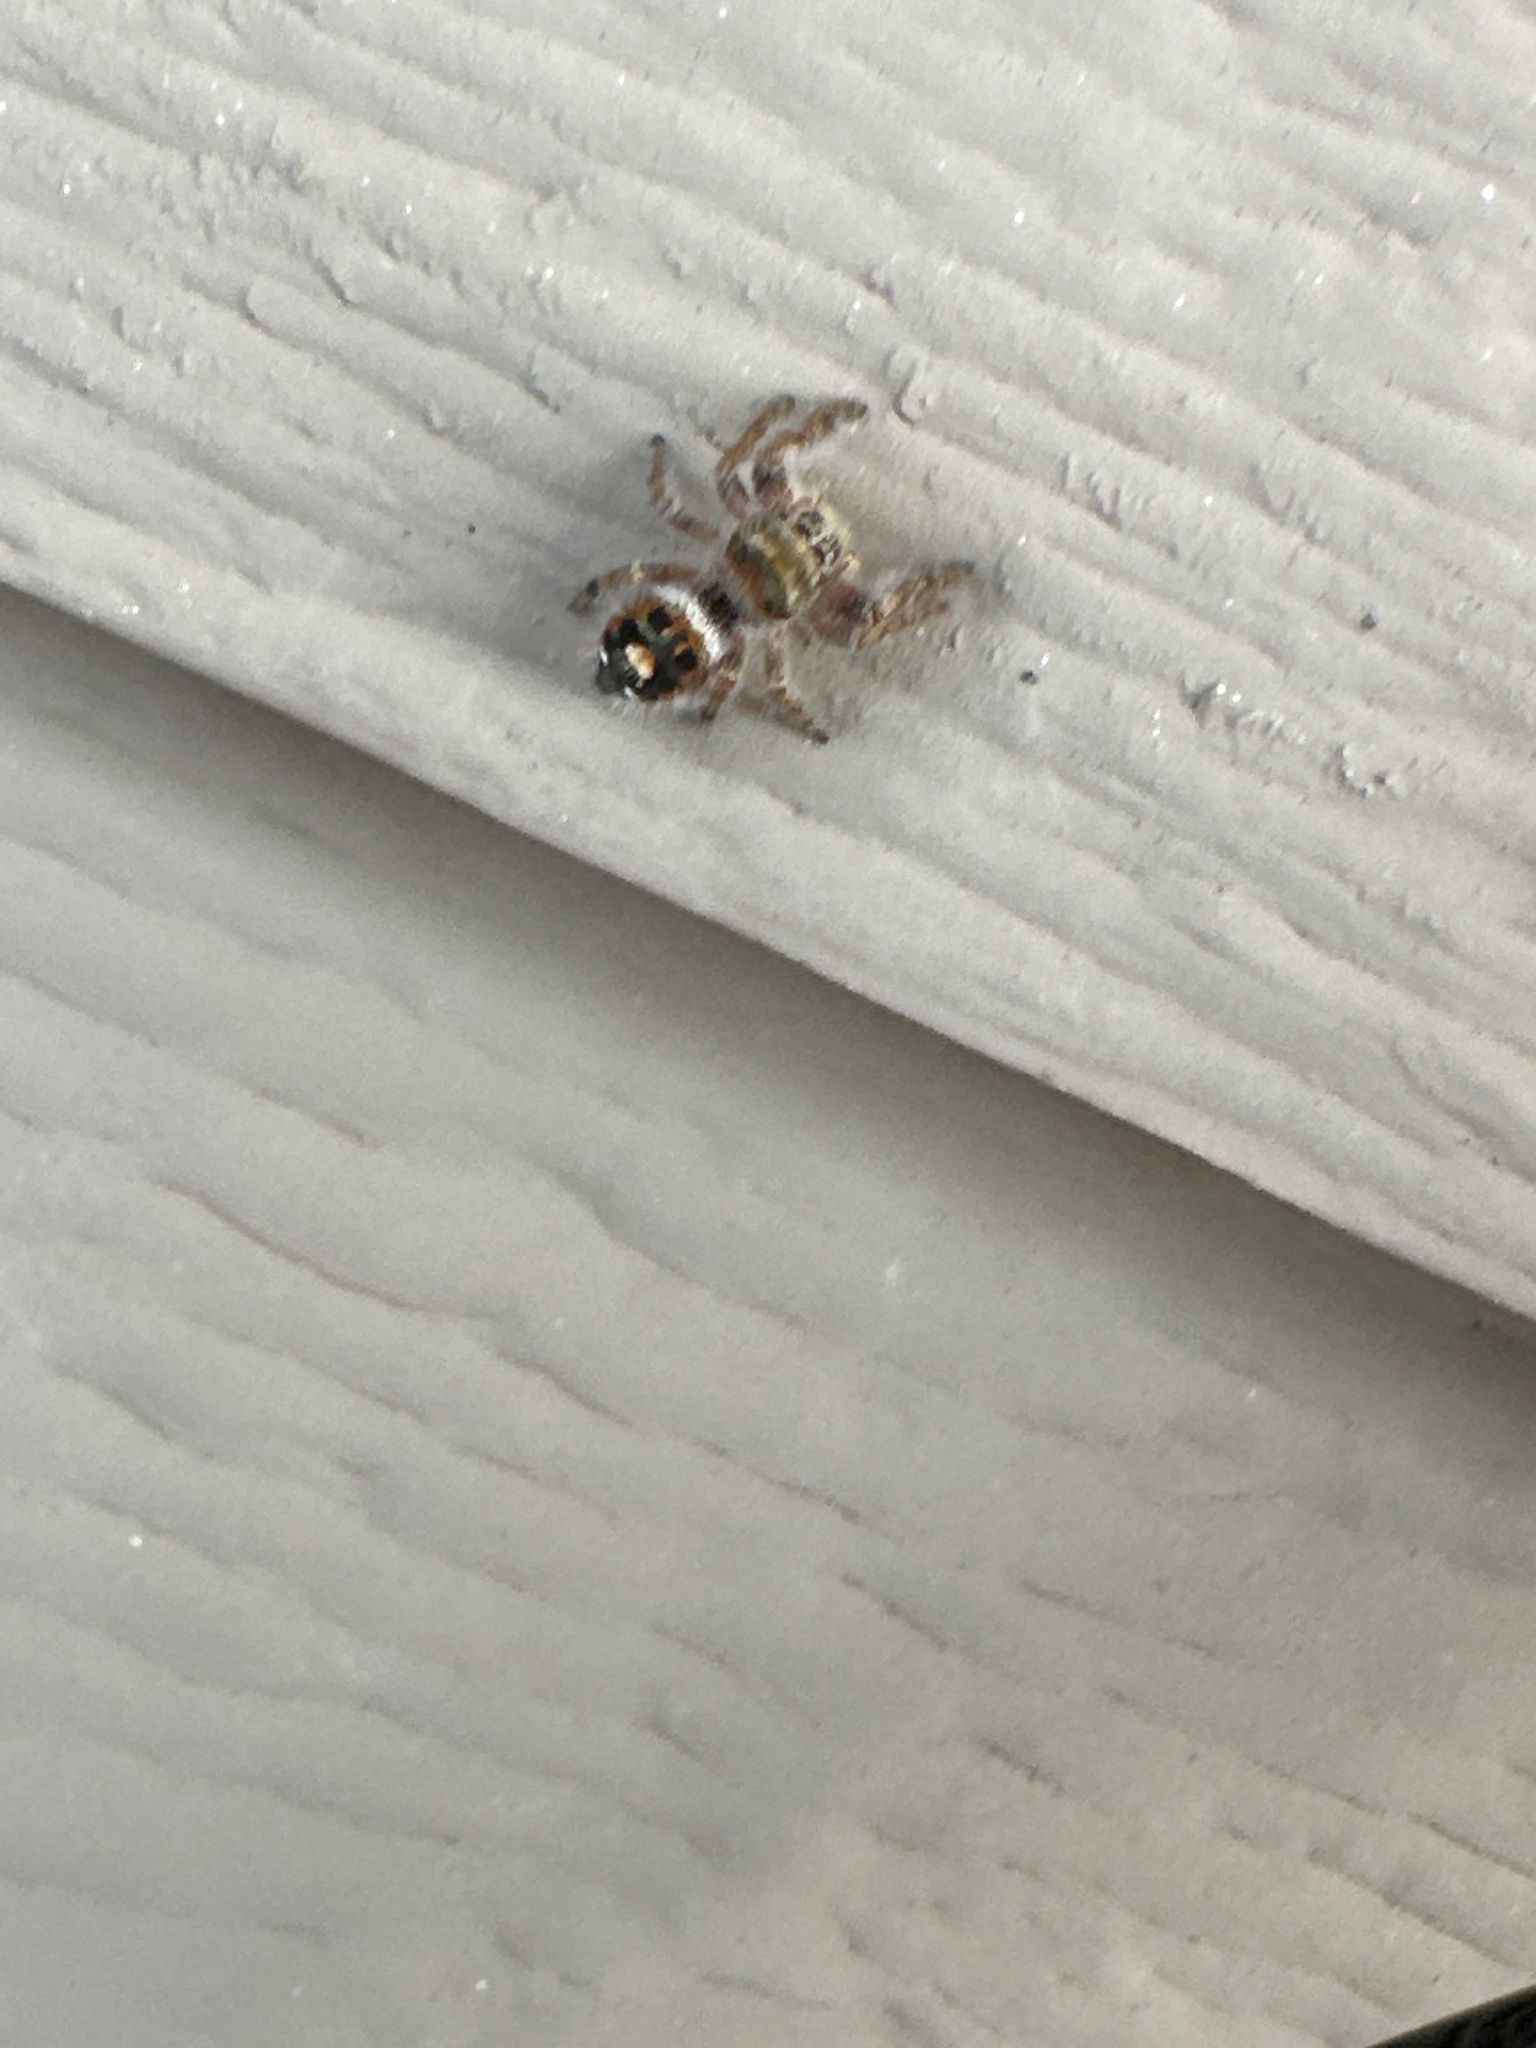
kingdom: Animalia
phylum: Arthropoda
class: Arachnida
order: Araneae
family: Salticidae
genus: Phidippus
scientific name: Phidippus audax
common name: Bold jumper
